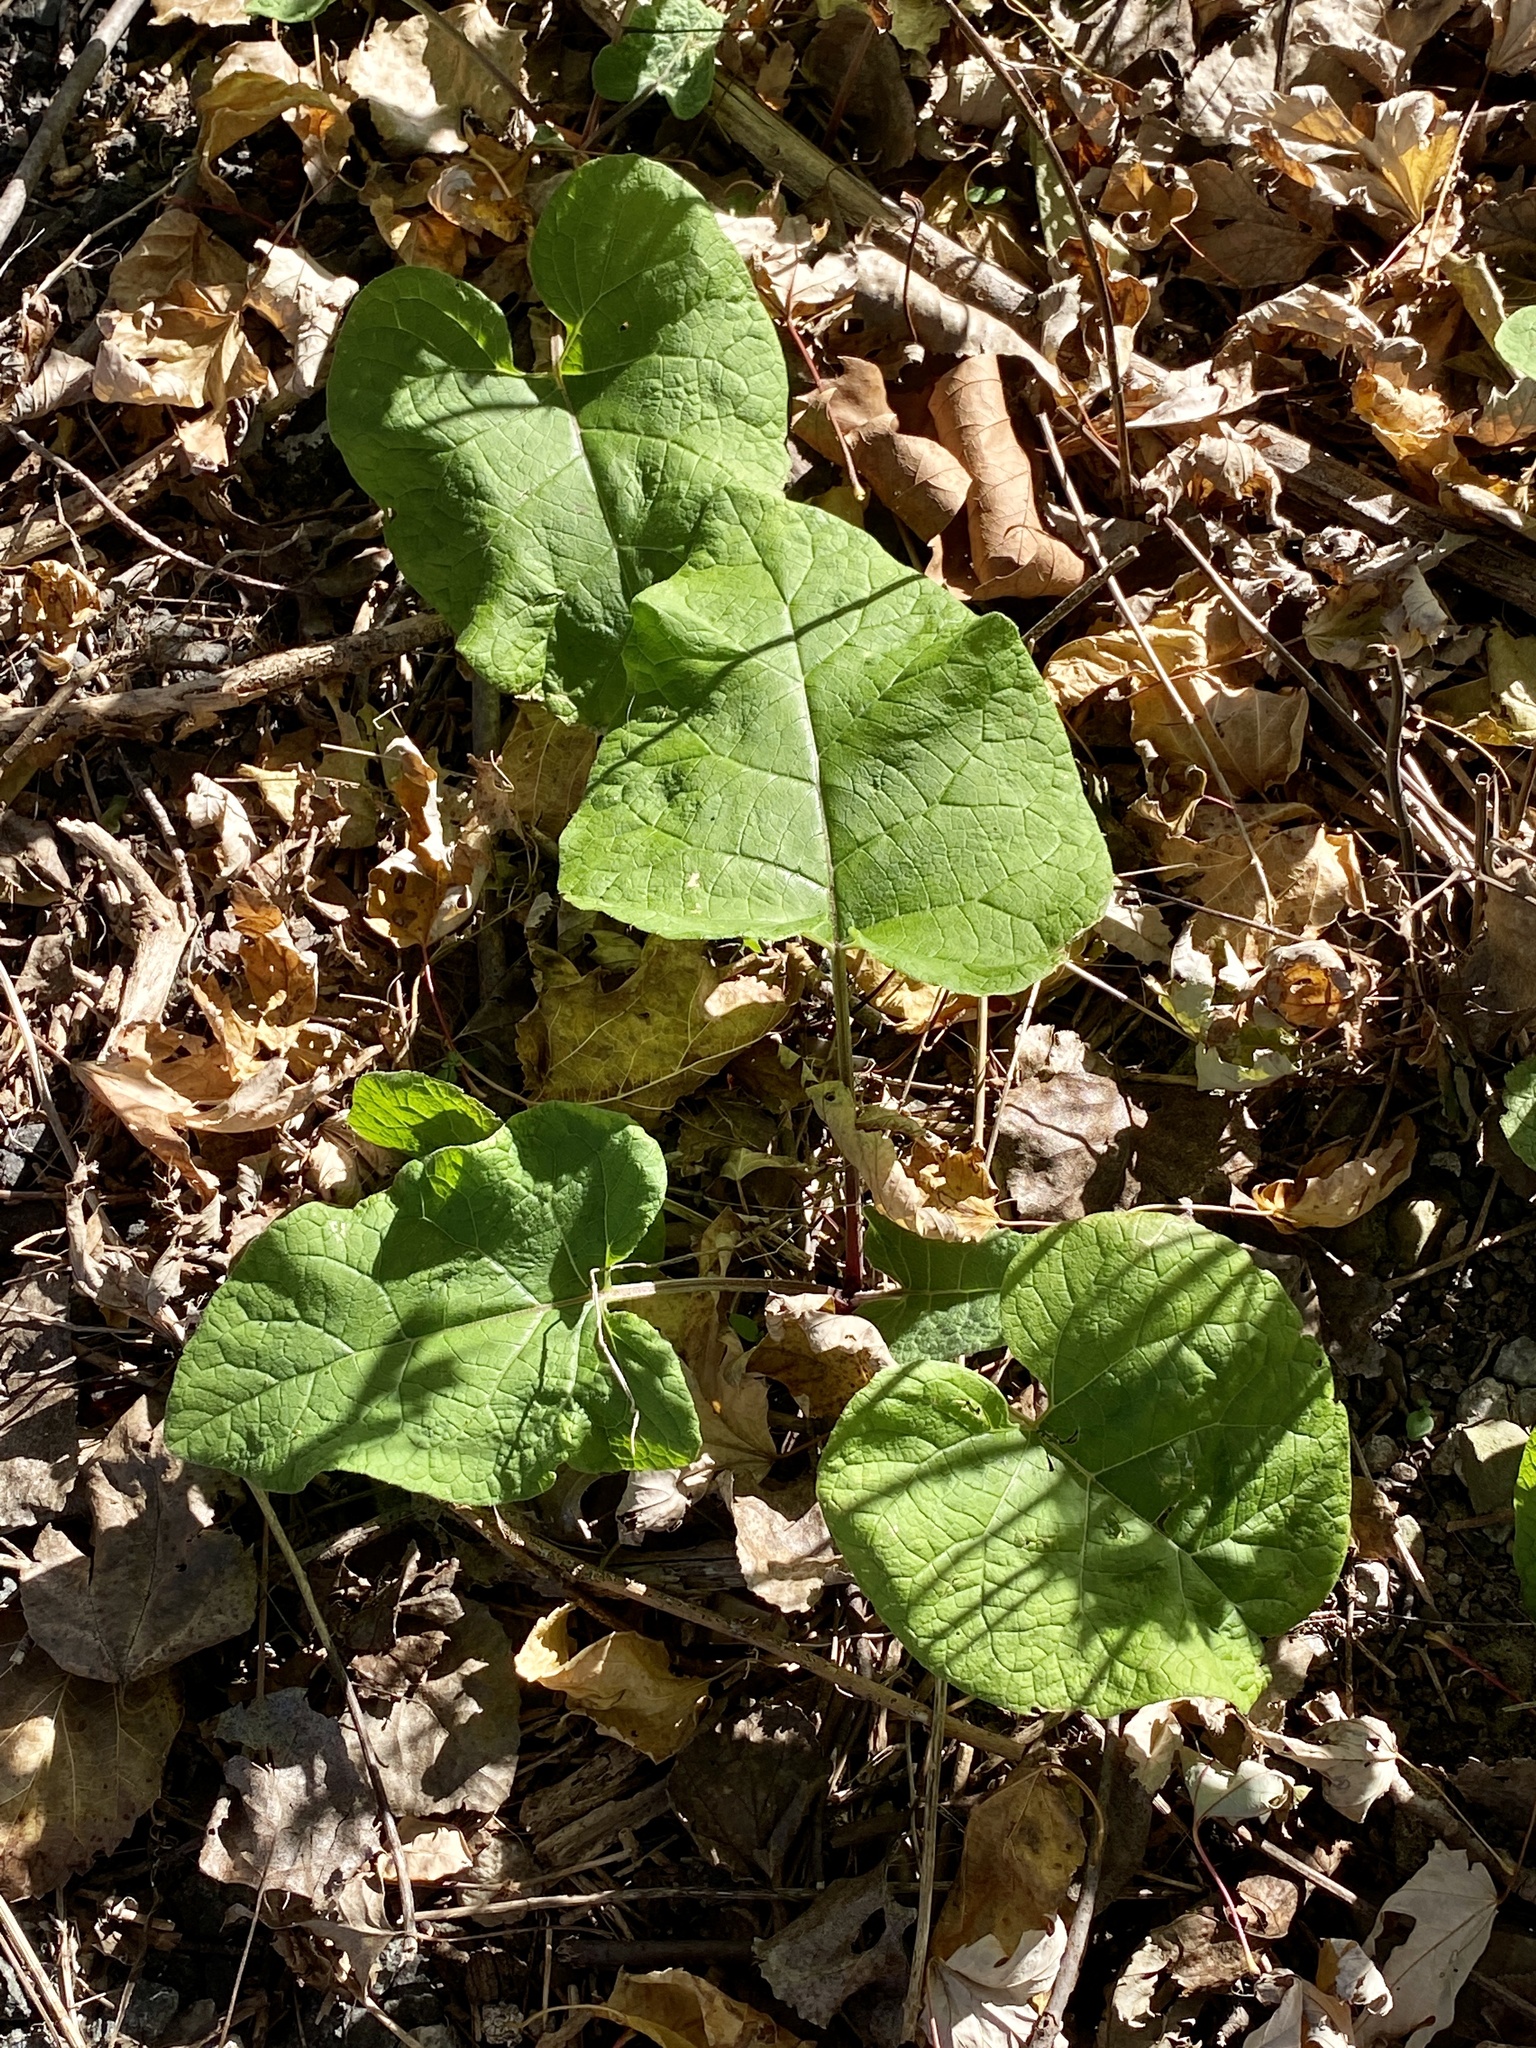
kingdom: Plantae
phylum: Tracheophyta
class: Magnoliopsida
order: Asterales
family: Asteraceae
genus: Arctium
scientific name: Arctium
